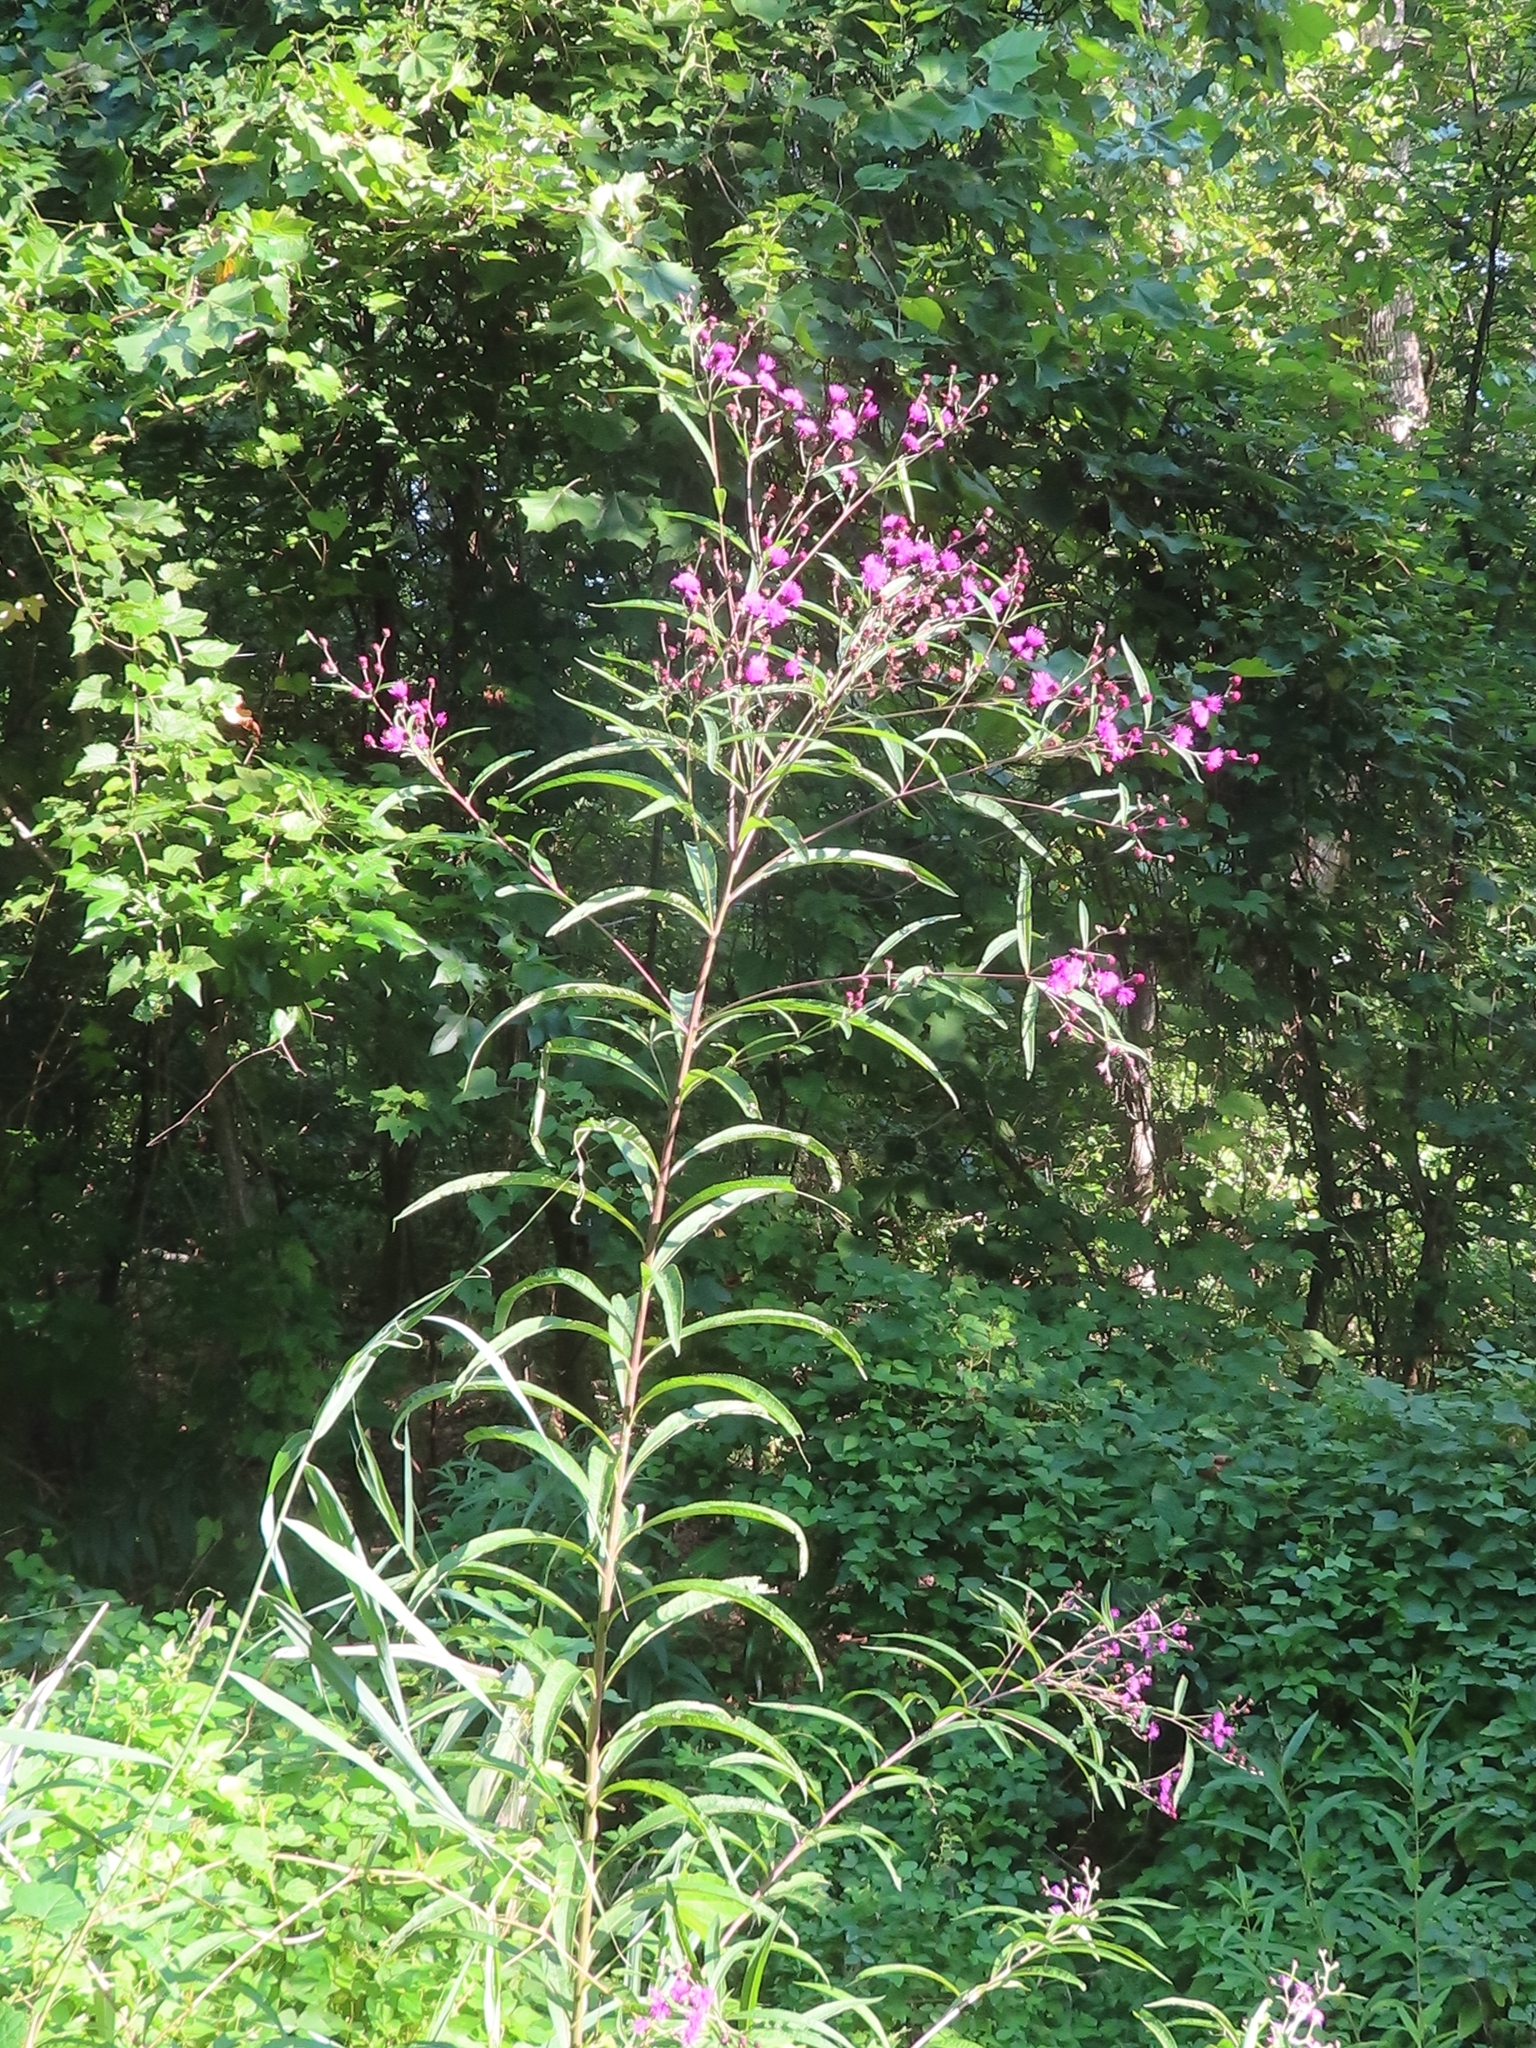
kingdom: Plantae
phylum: Tracheophyta
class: Magnoliopsida
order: Asterales
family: Asteraceae
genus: Vernonia
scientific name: Vernonia noveboracensis
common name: New york ironweed
